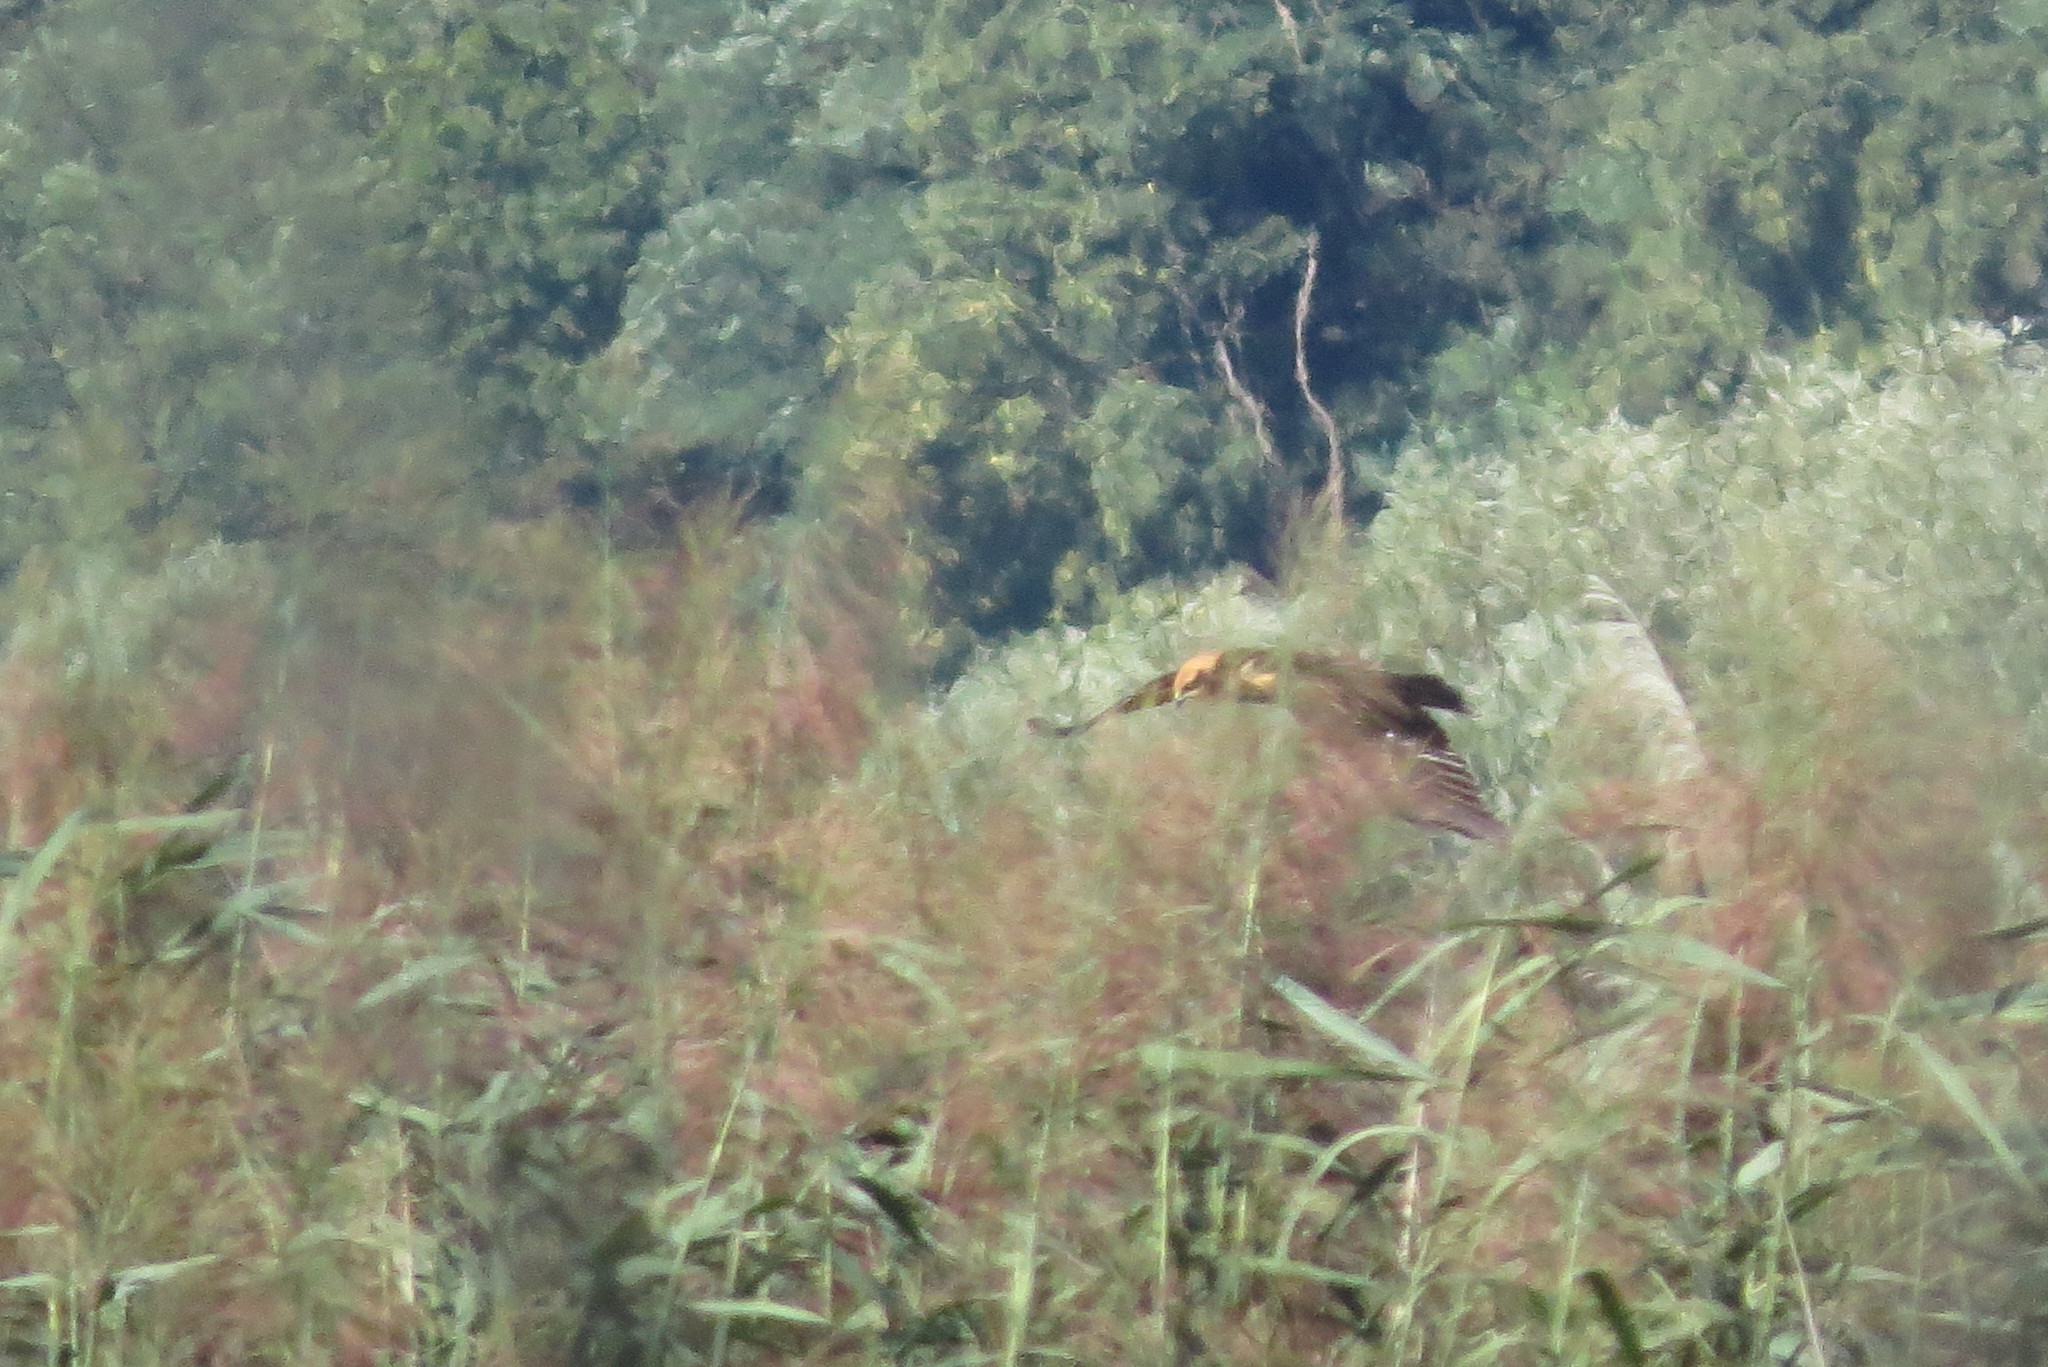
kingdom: Animalia
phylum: Chordata
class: Aves
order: Accipitriformes
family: Accipitridae
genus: Circus
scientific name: Circus aeruginosus
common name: Western marsh harrier
